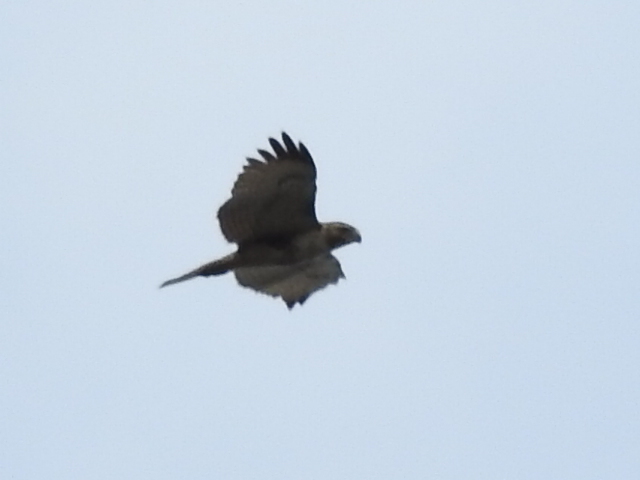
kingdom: Animalia
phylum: Chordata
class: Aves
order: Accipitriformes
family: Accipitridae
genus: Buteo
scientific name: Buteo jamaicensis
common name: Red-tailed hawk
